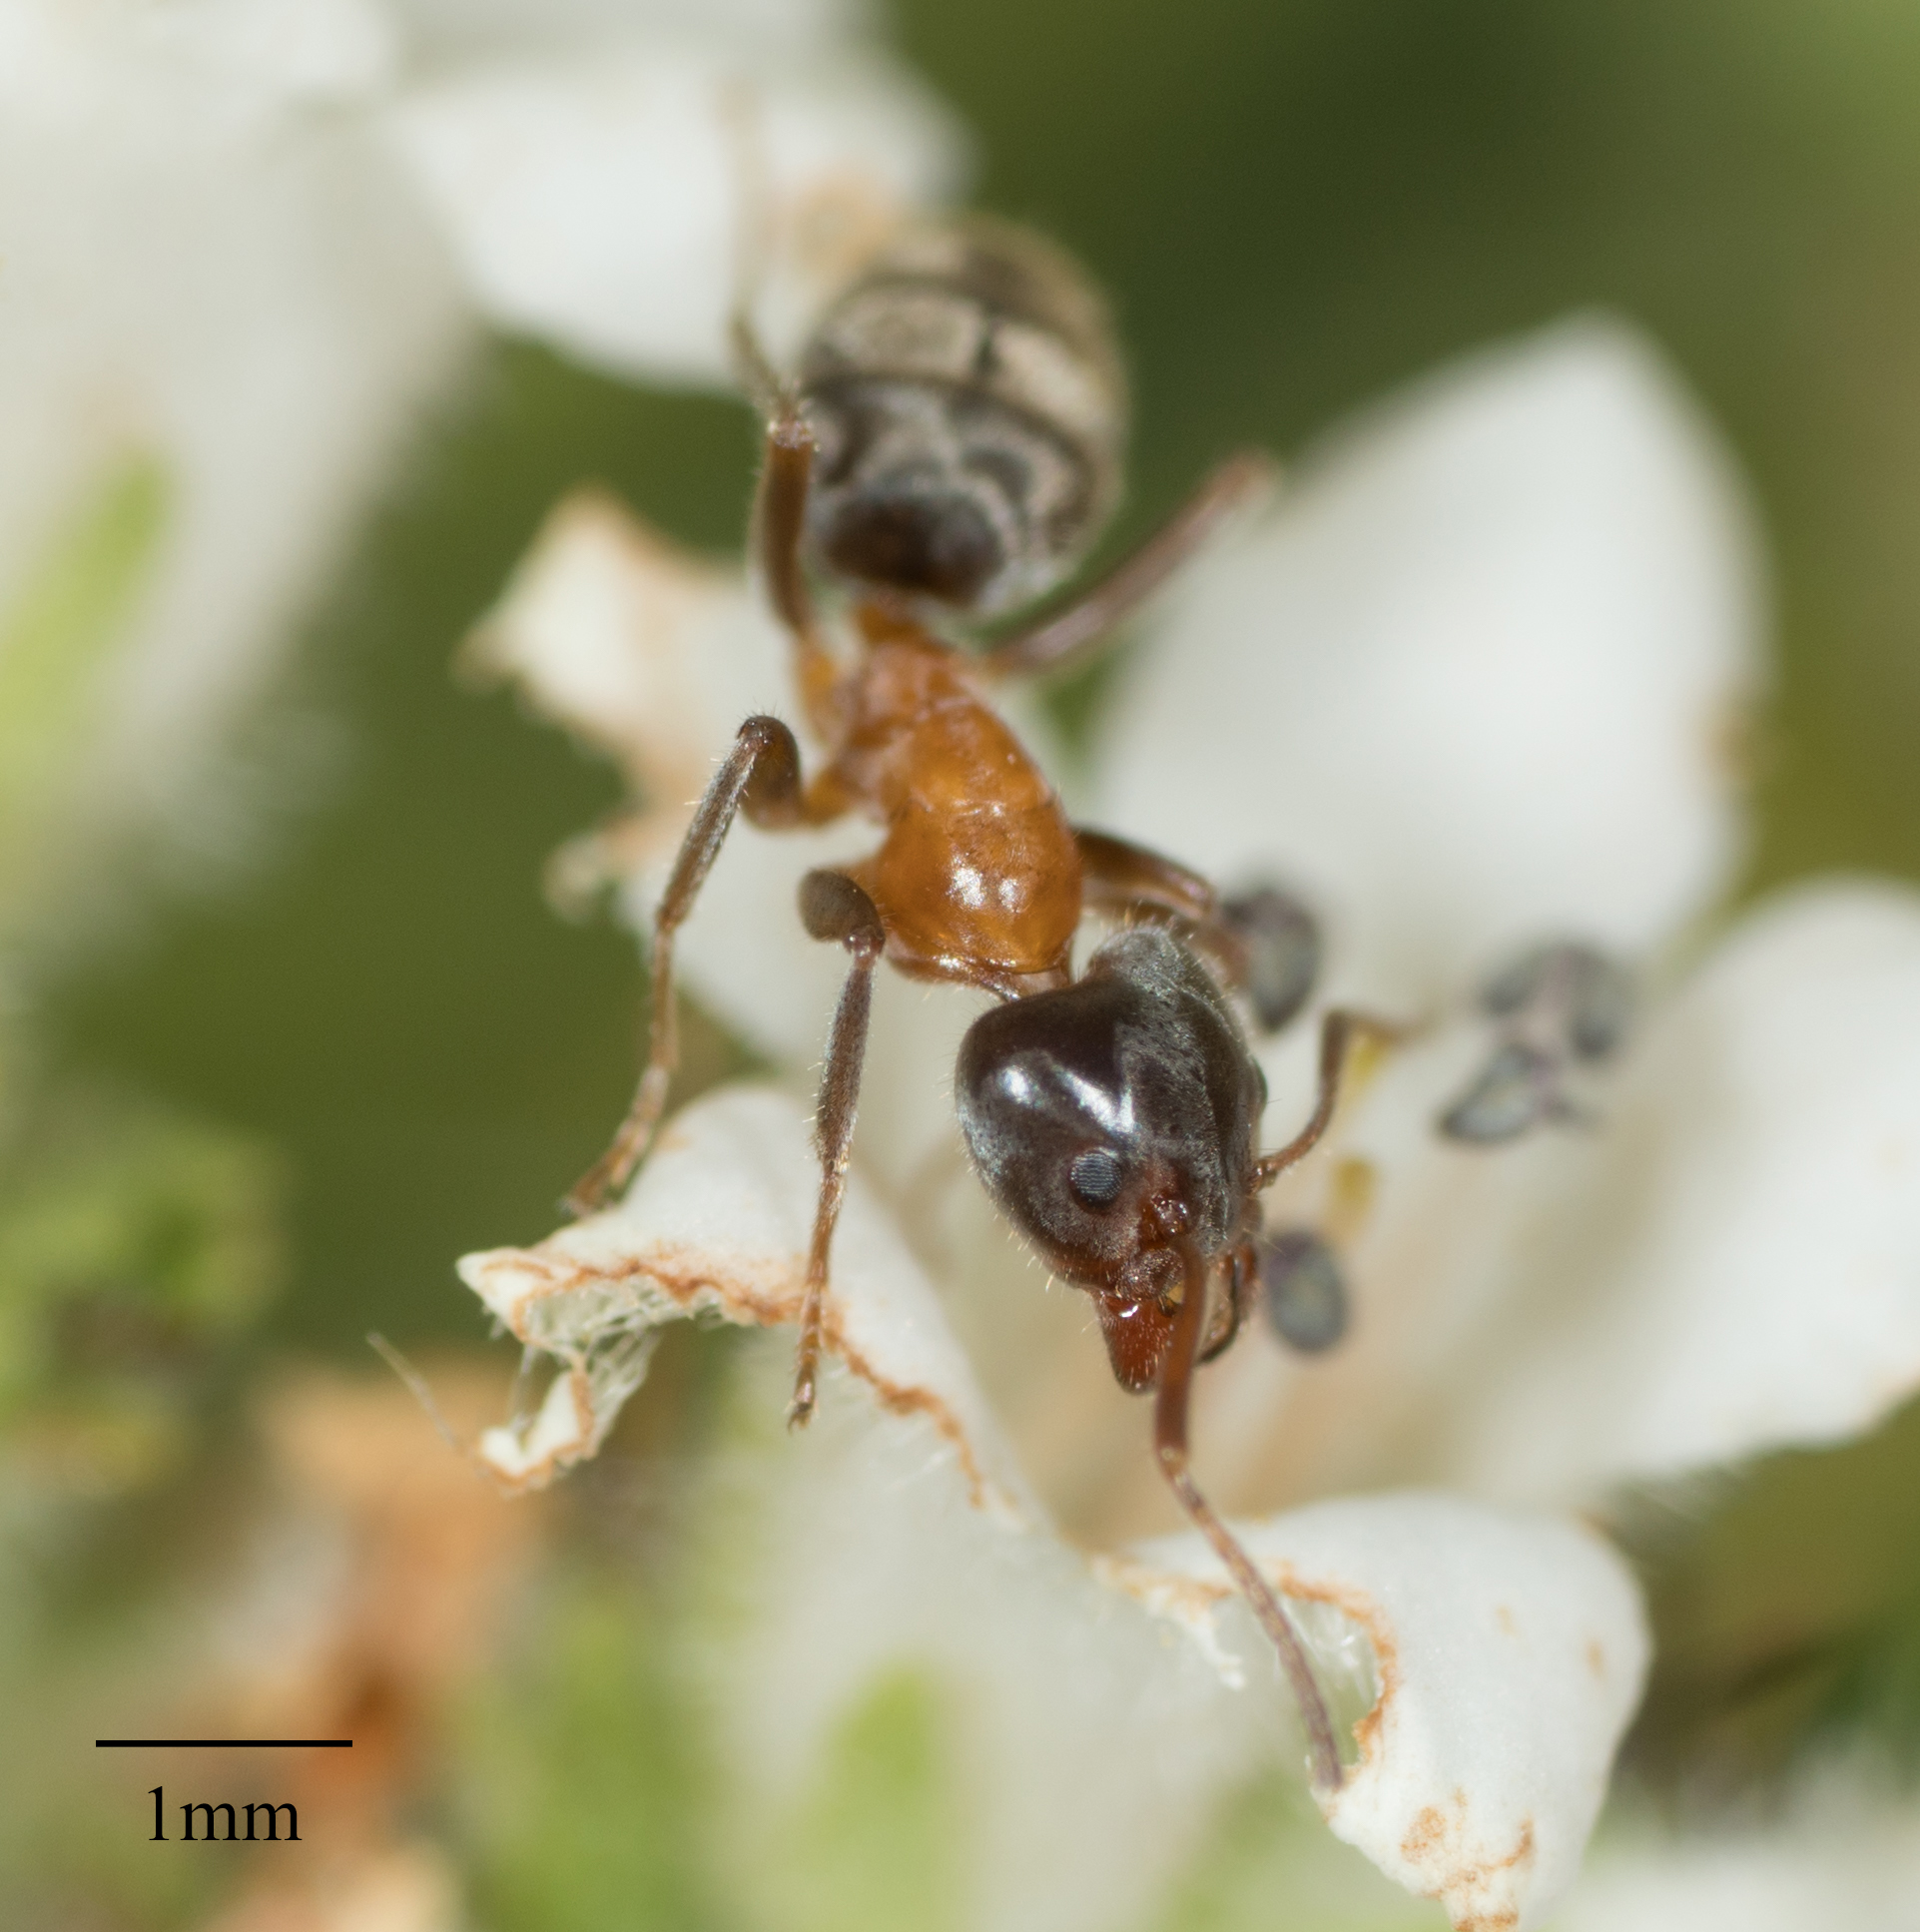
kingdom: Animalia
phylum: Arthropoda
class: Insecta
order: Hymenoptera
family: Formicidae
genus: Liometopum
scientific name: Liometopum occidentale
